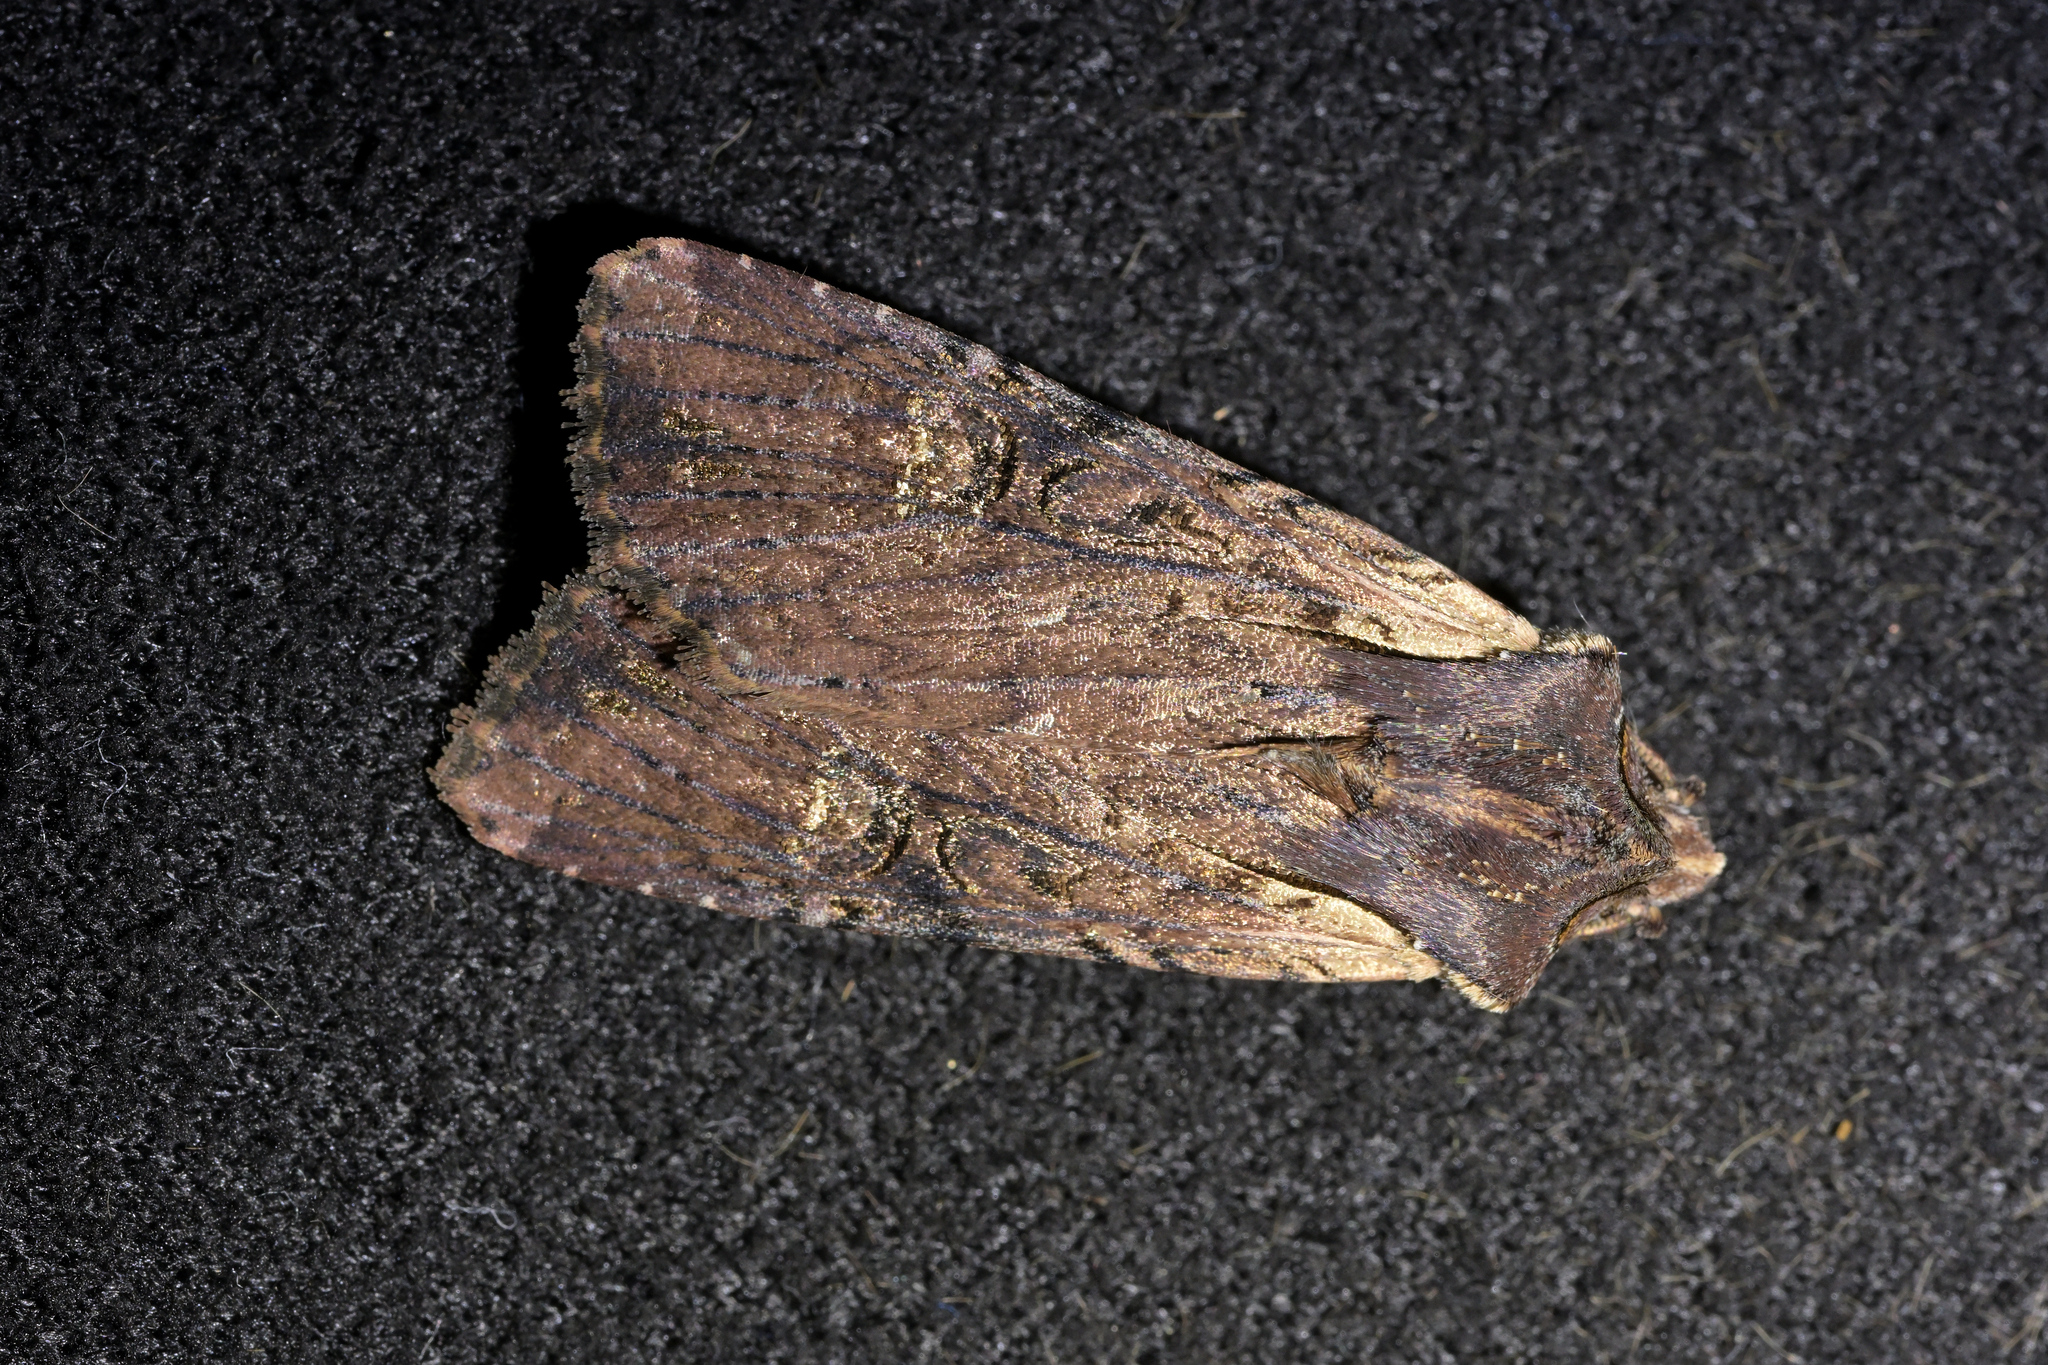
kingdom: Animalia
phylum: Arthropoda
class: Insecta
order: Lepidoptera
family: Noctuidae
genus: Ichneutica
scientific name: Ichneutica omoplaca
